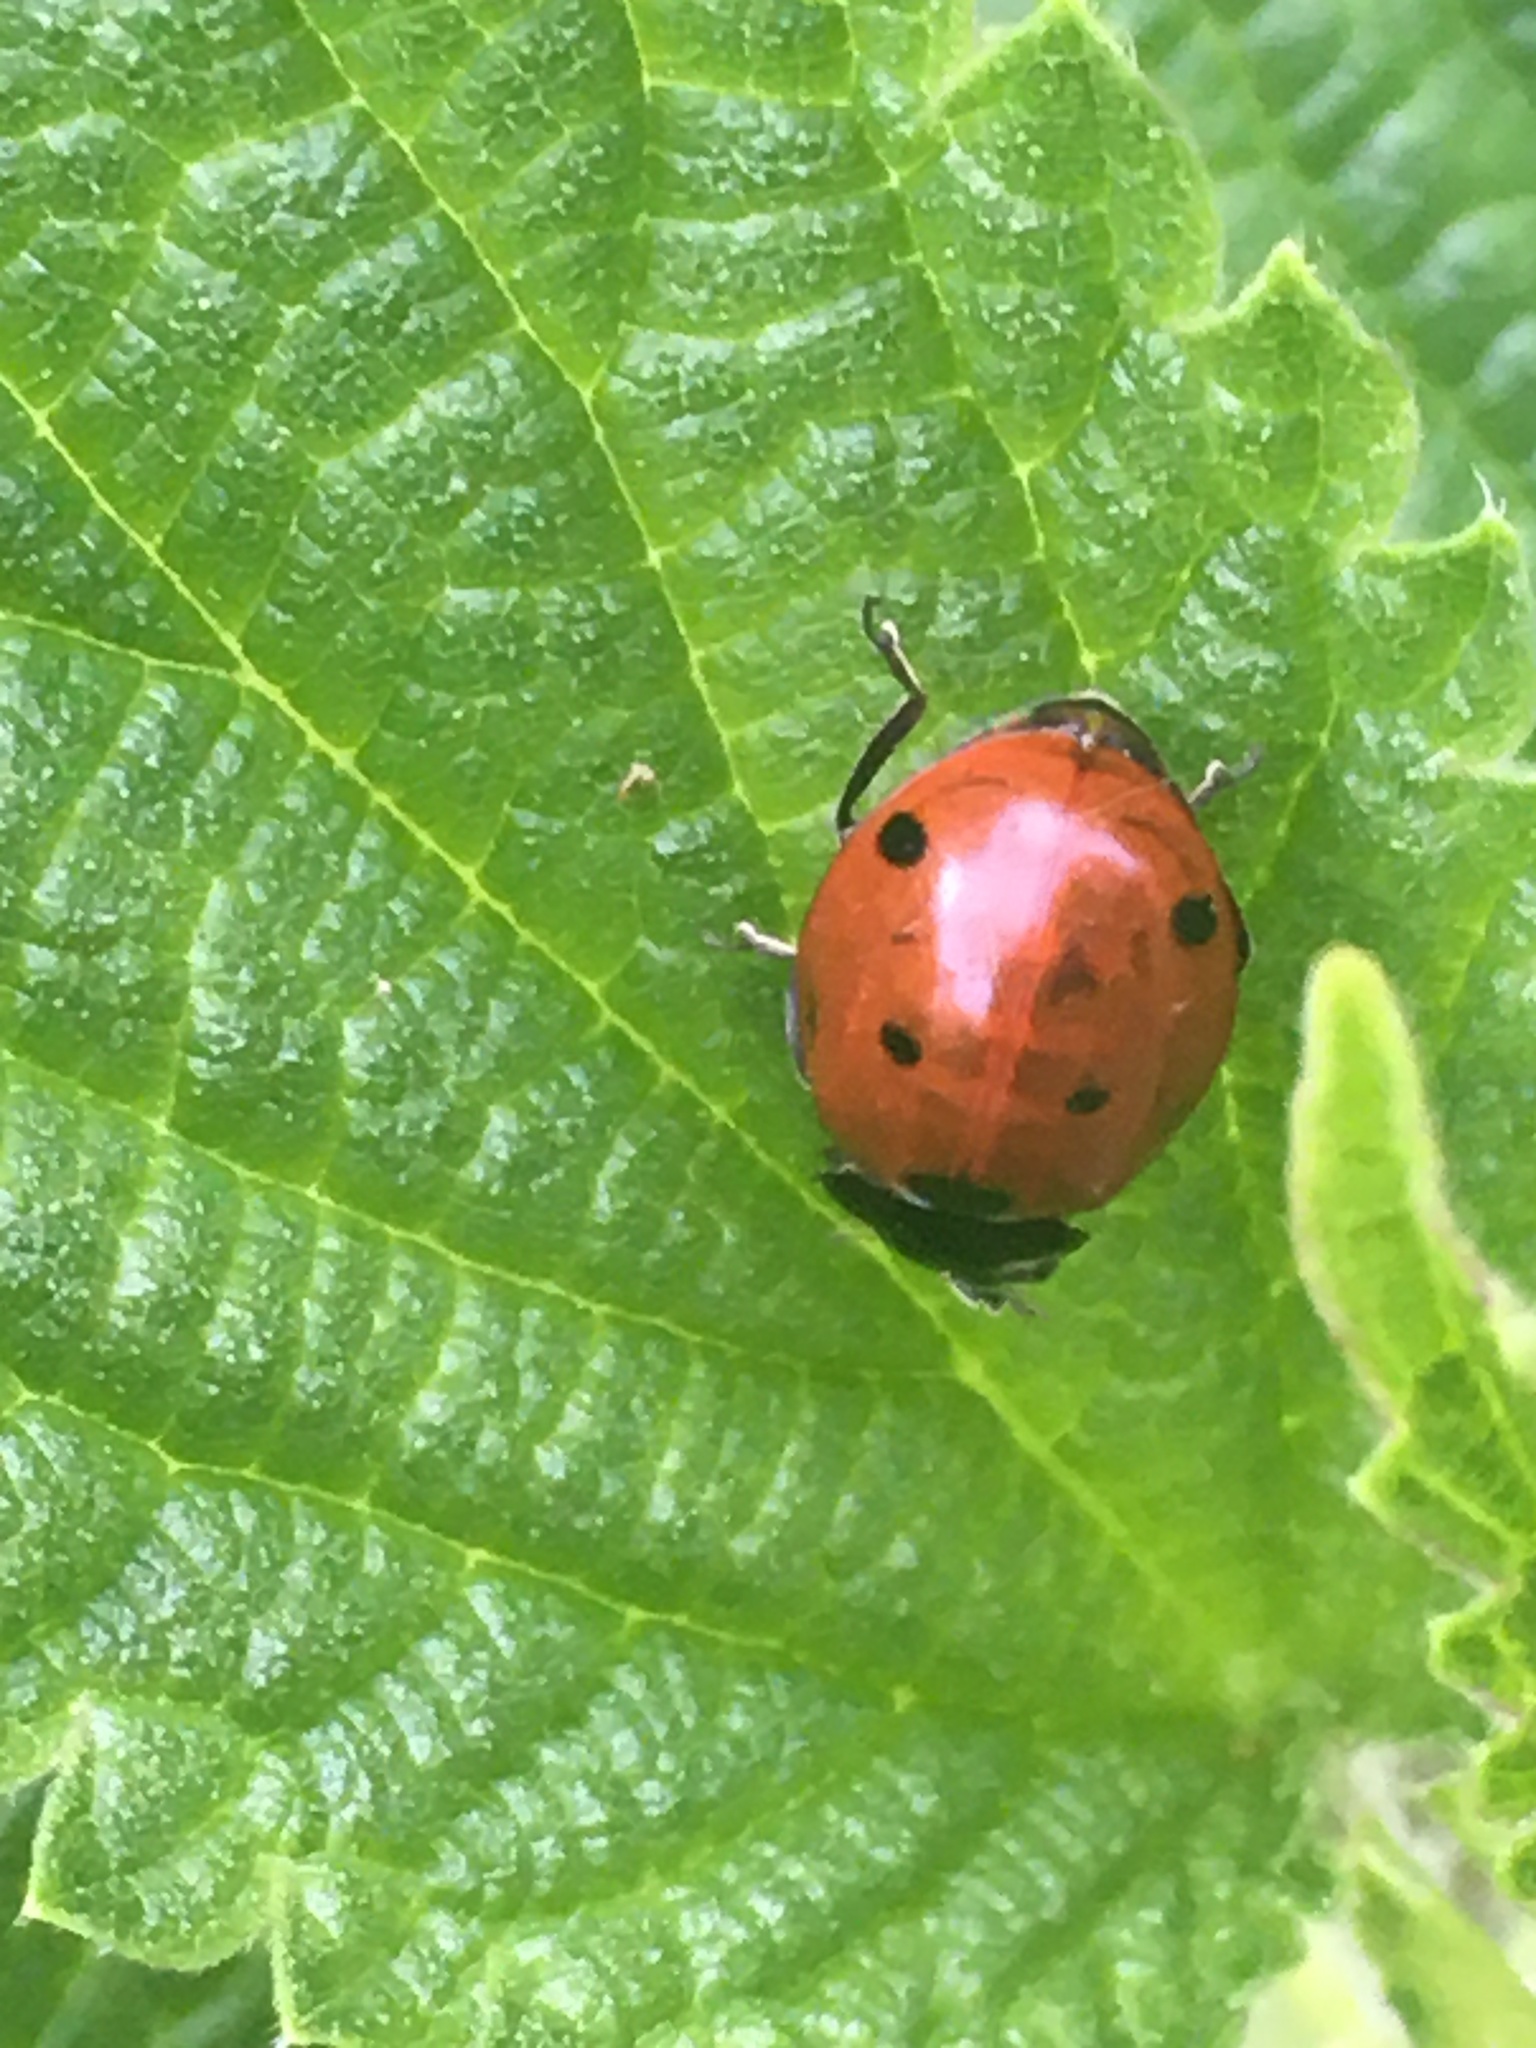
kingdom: Animalia
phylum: Arthropoda
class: Insecta
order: Coleoptera
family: Coccinellidae
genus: Coccinella
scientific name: Coccinella septempunctata
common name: Sevenspotted lady beetle
